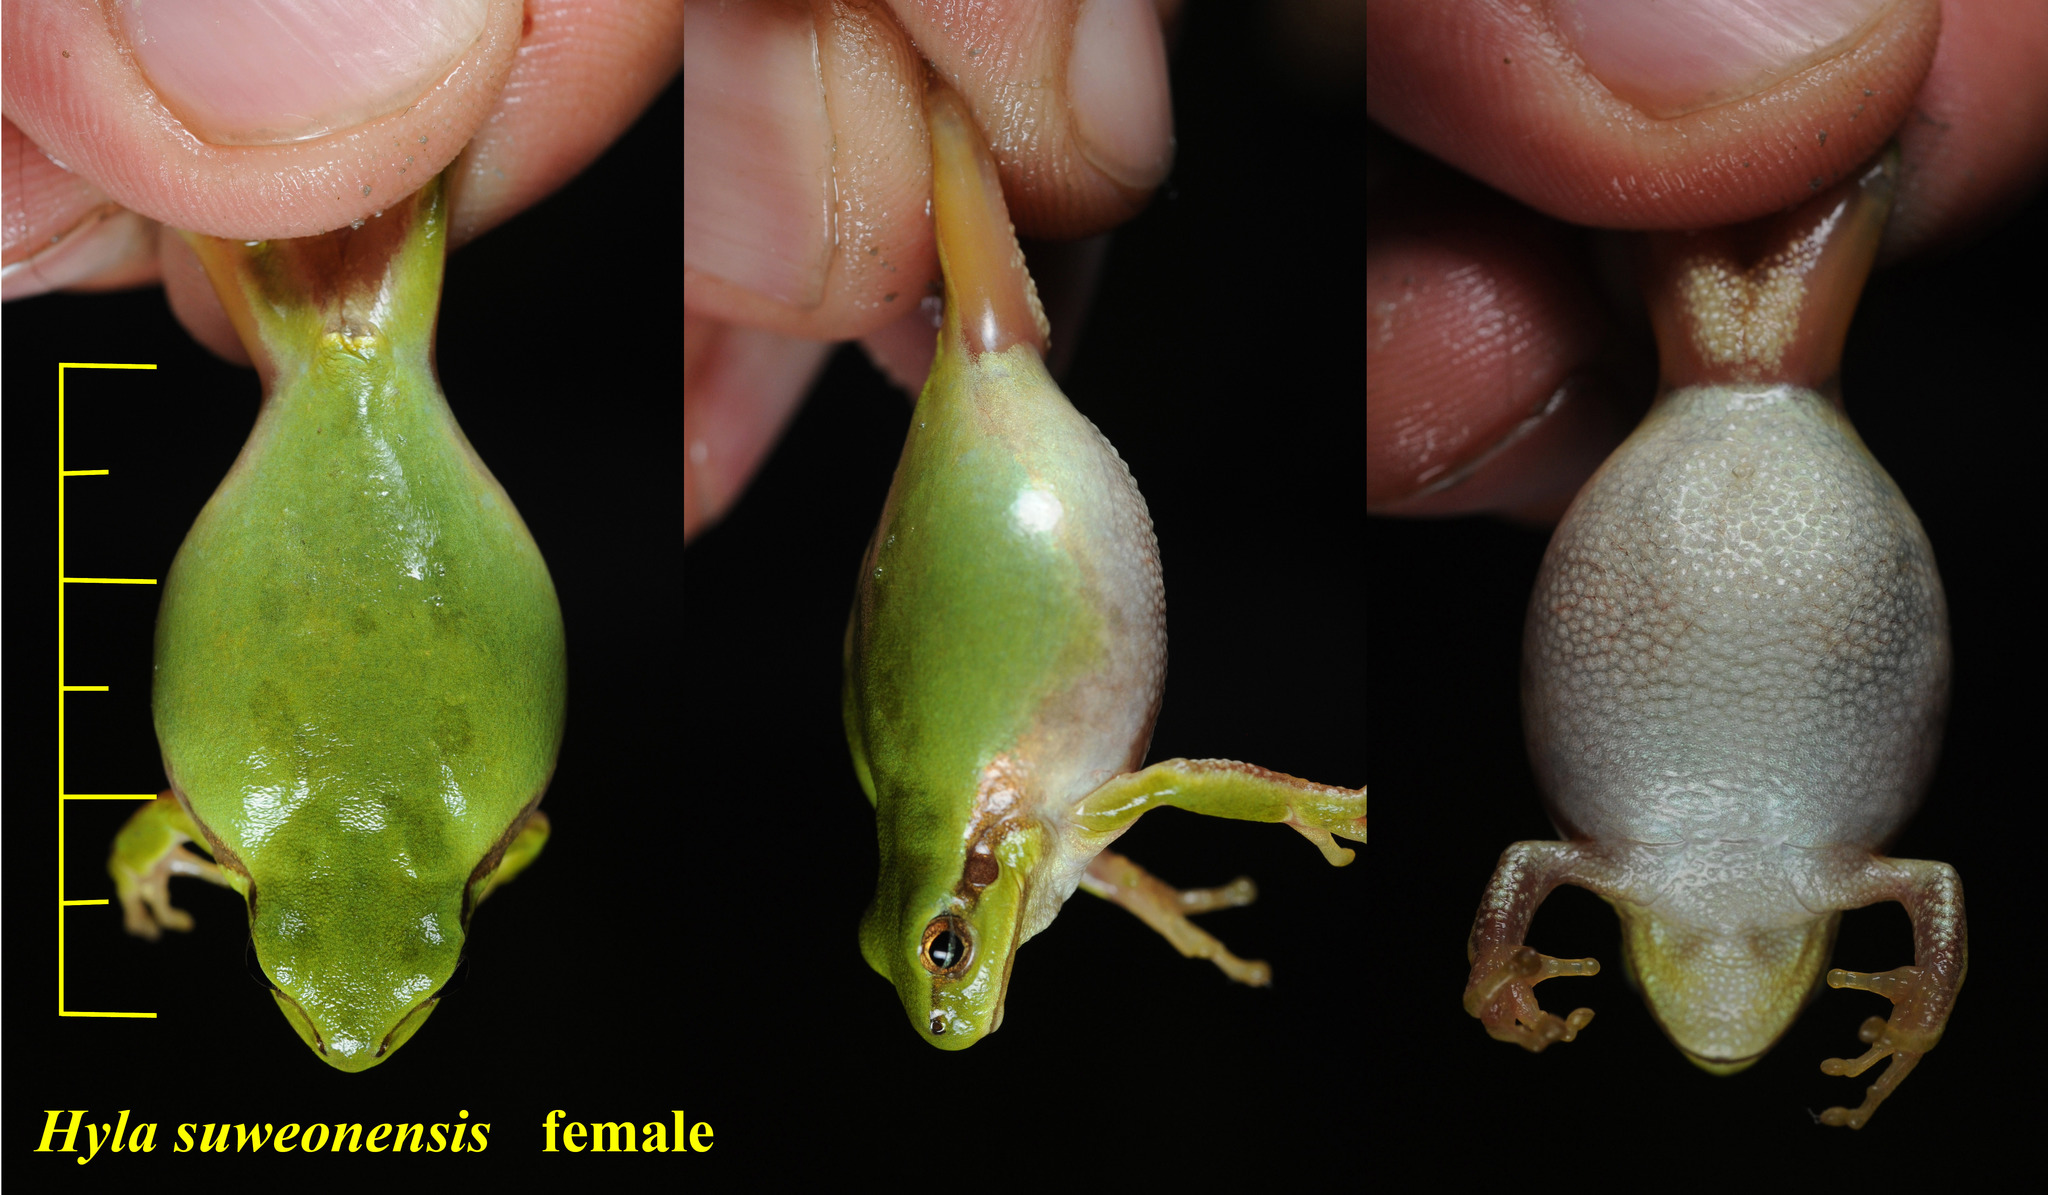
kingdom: Animalia
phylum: Chordata
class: Amphibia
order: Anura
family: Hylidae
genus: Dryophytes
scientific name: Dryophytes immaculatus
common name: North china treefrog
